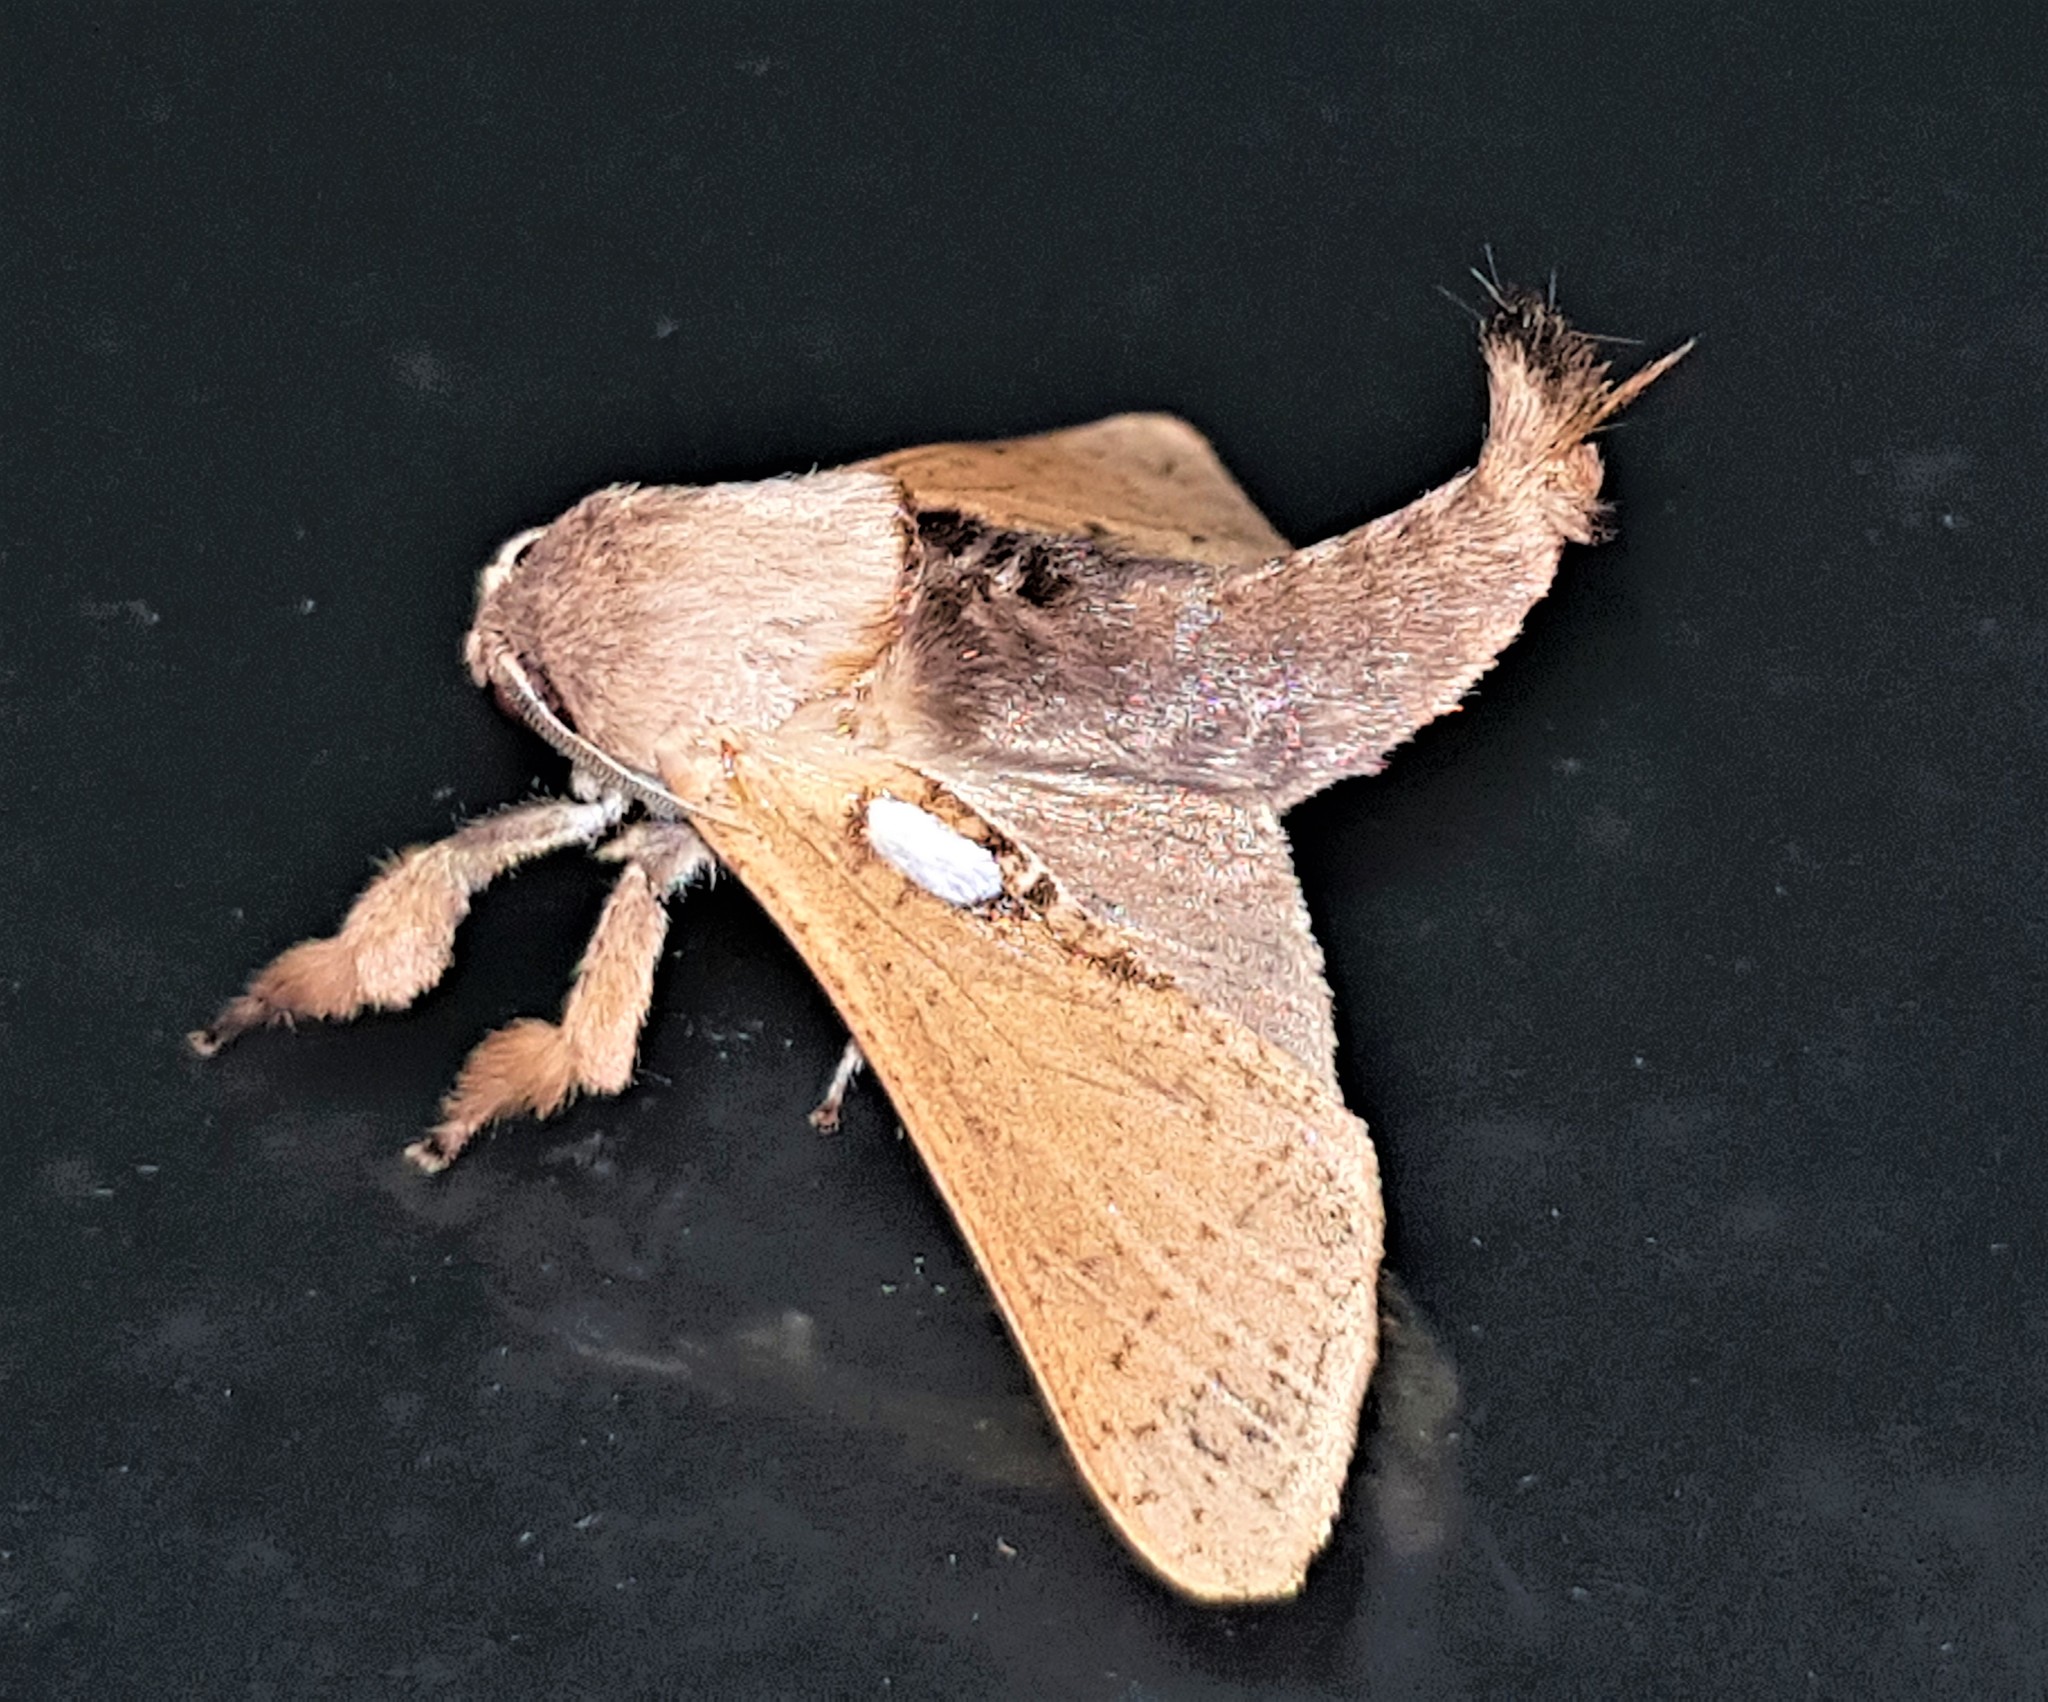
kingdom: Animalia
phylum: Arthropoda
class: Insecta
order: Lepidoptera
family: Cossidae
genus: Givira
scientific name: Givira argentipuncta
